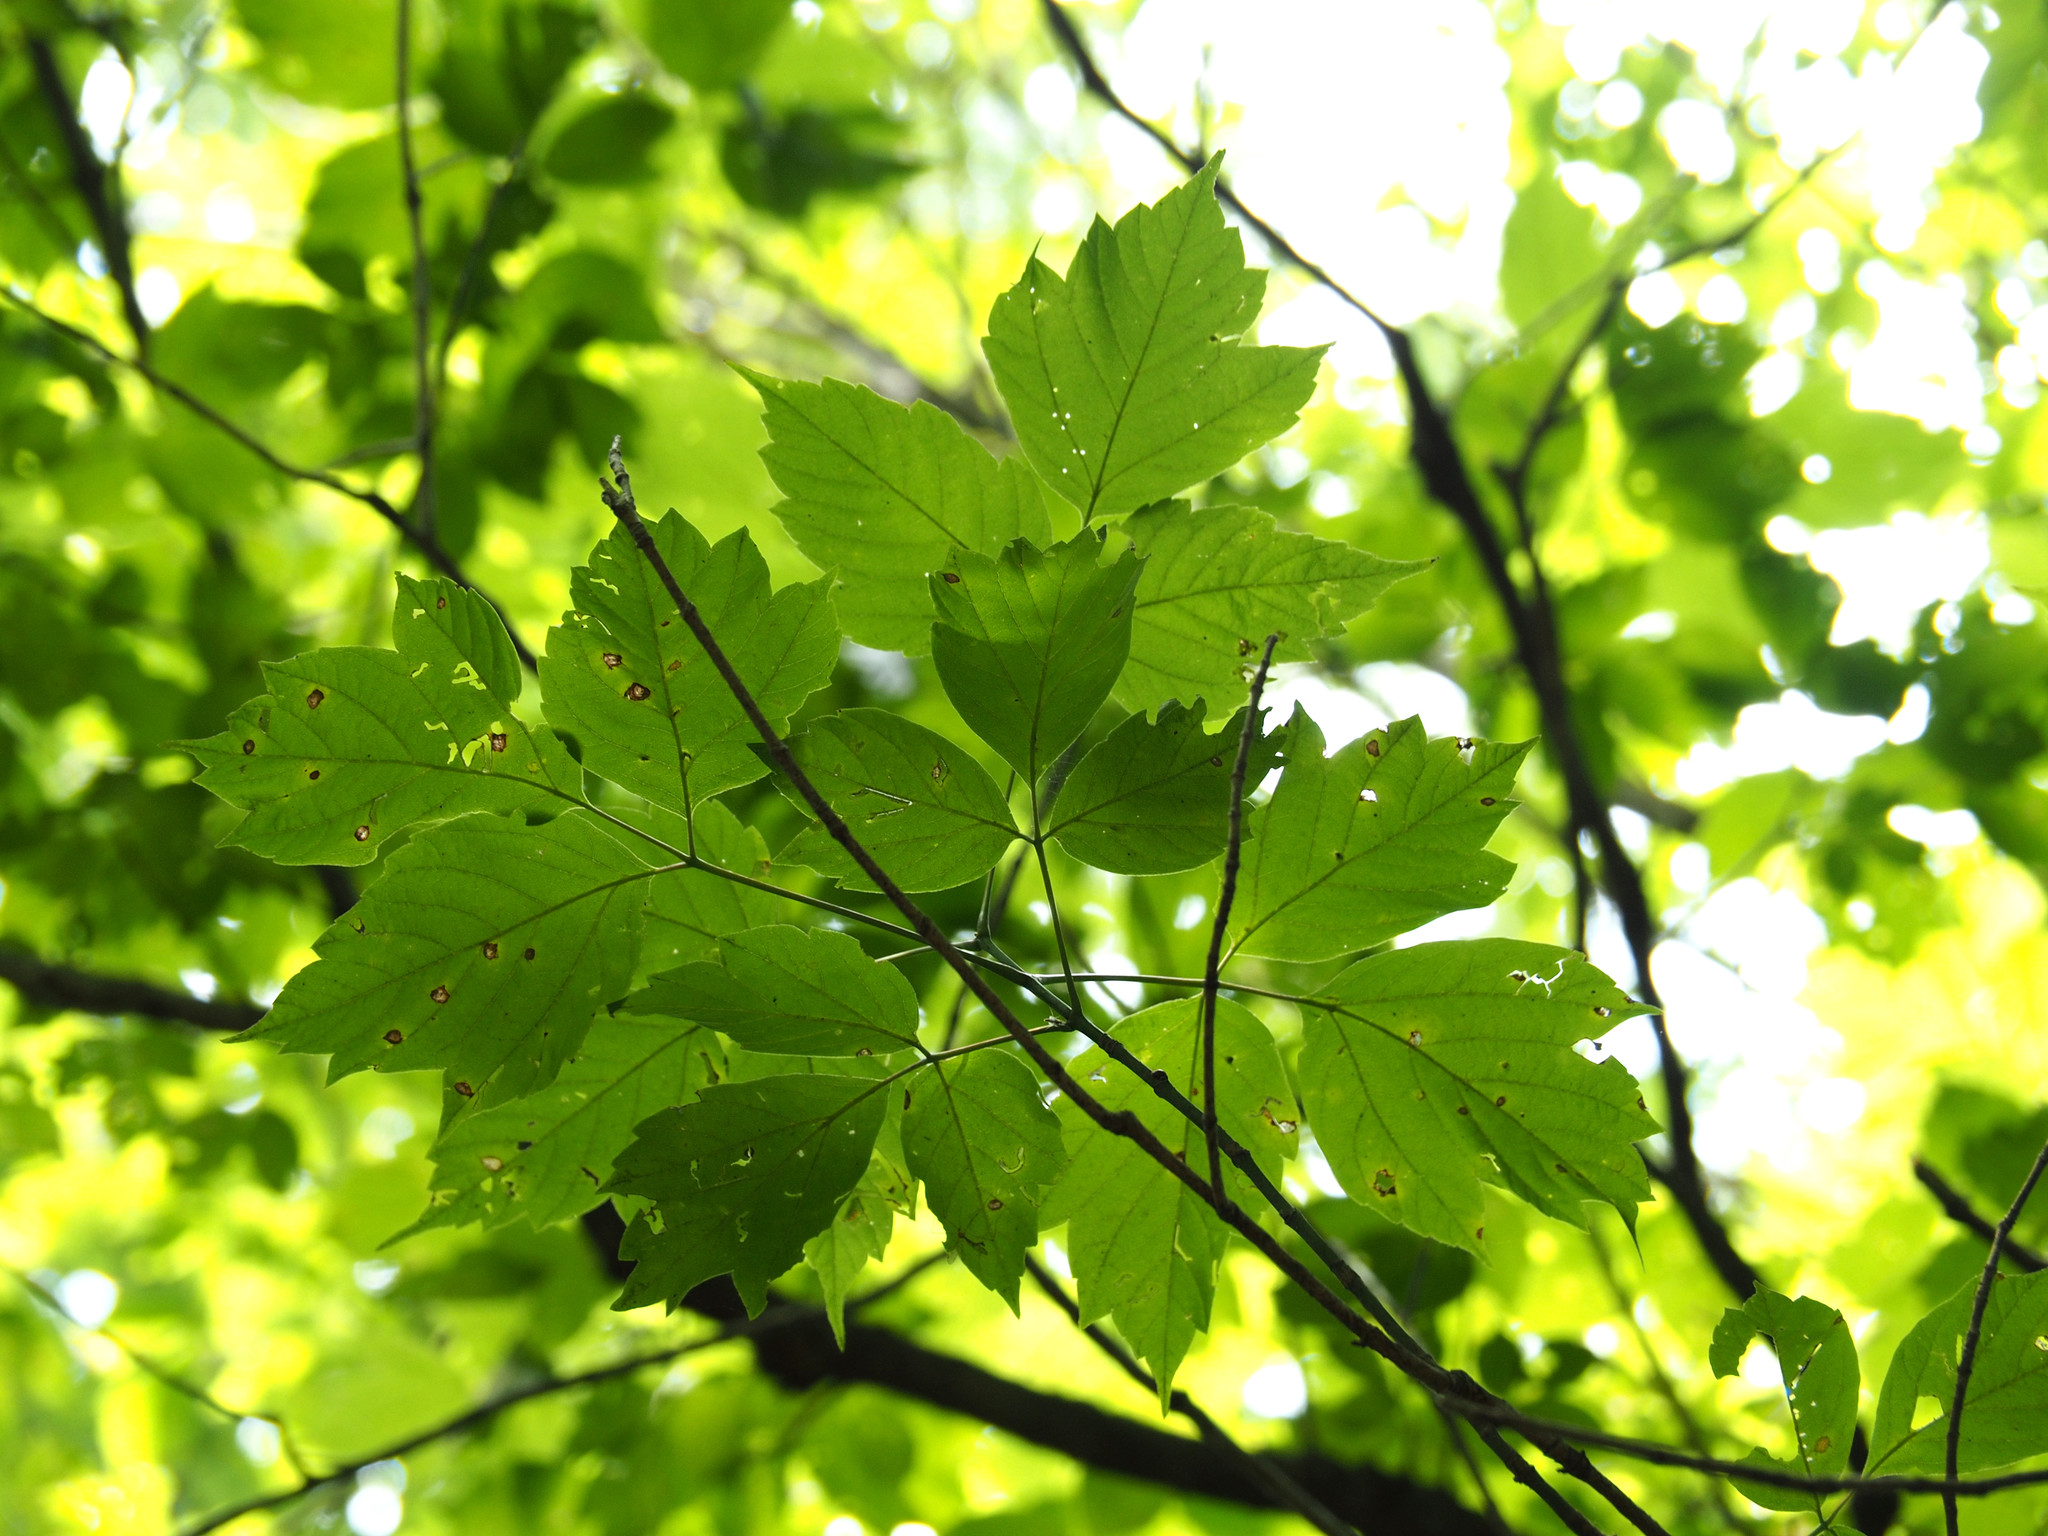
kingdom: Plantae
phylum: Tracheophyta
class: Magnoliopsida
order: Sapindales
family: Sapindaceae
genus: Acer
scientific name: Acer negundo
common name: Ashleaf maple
